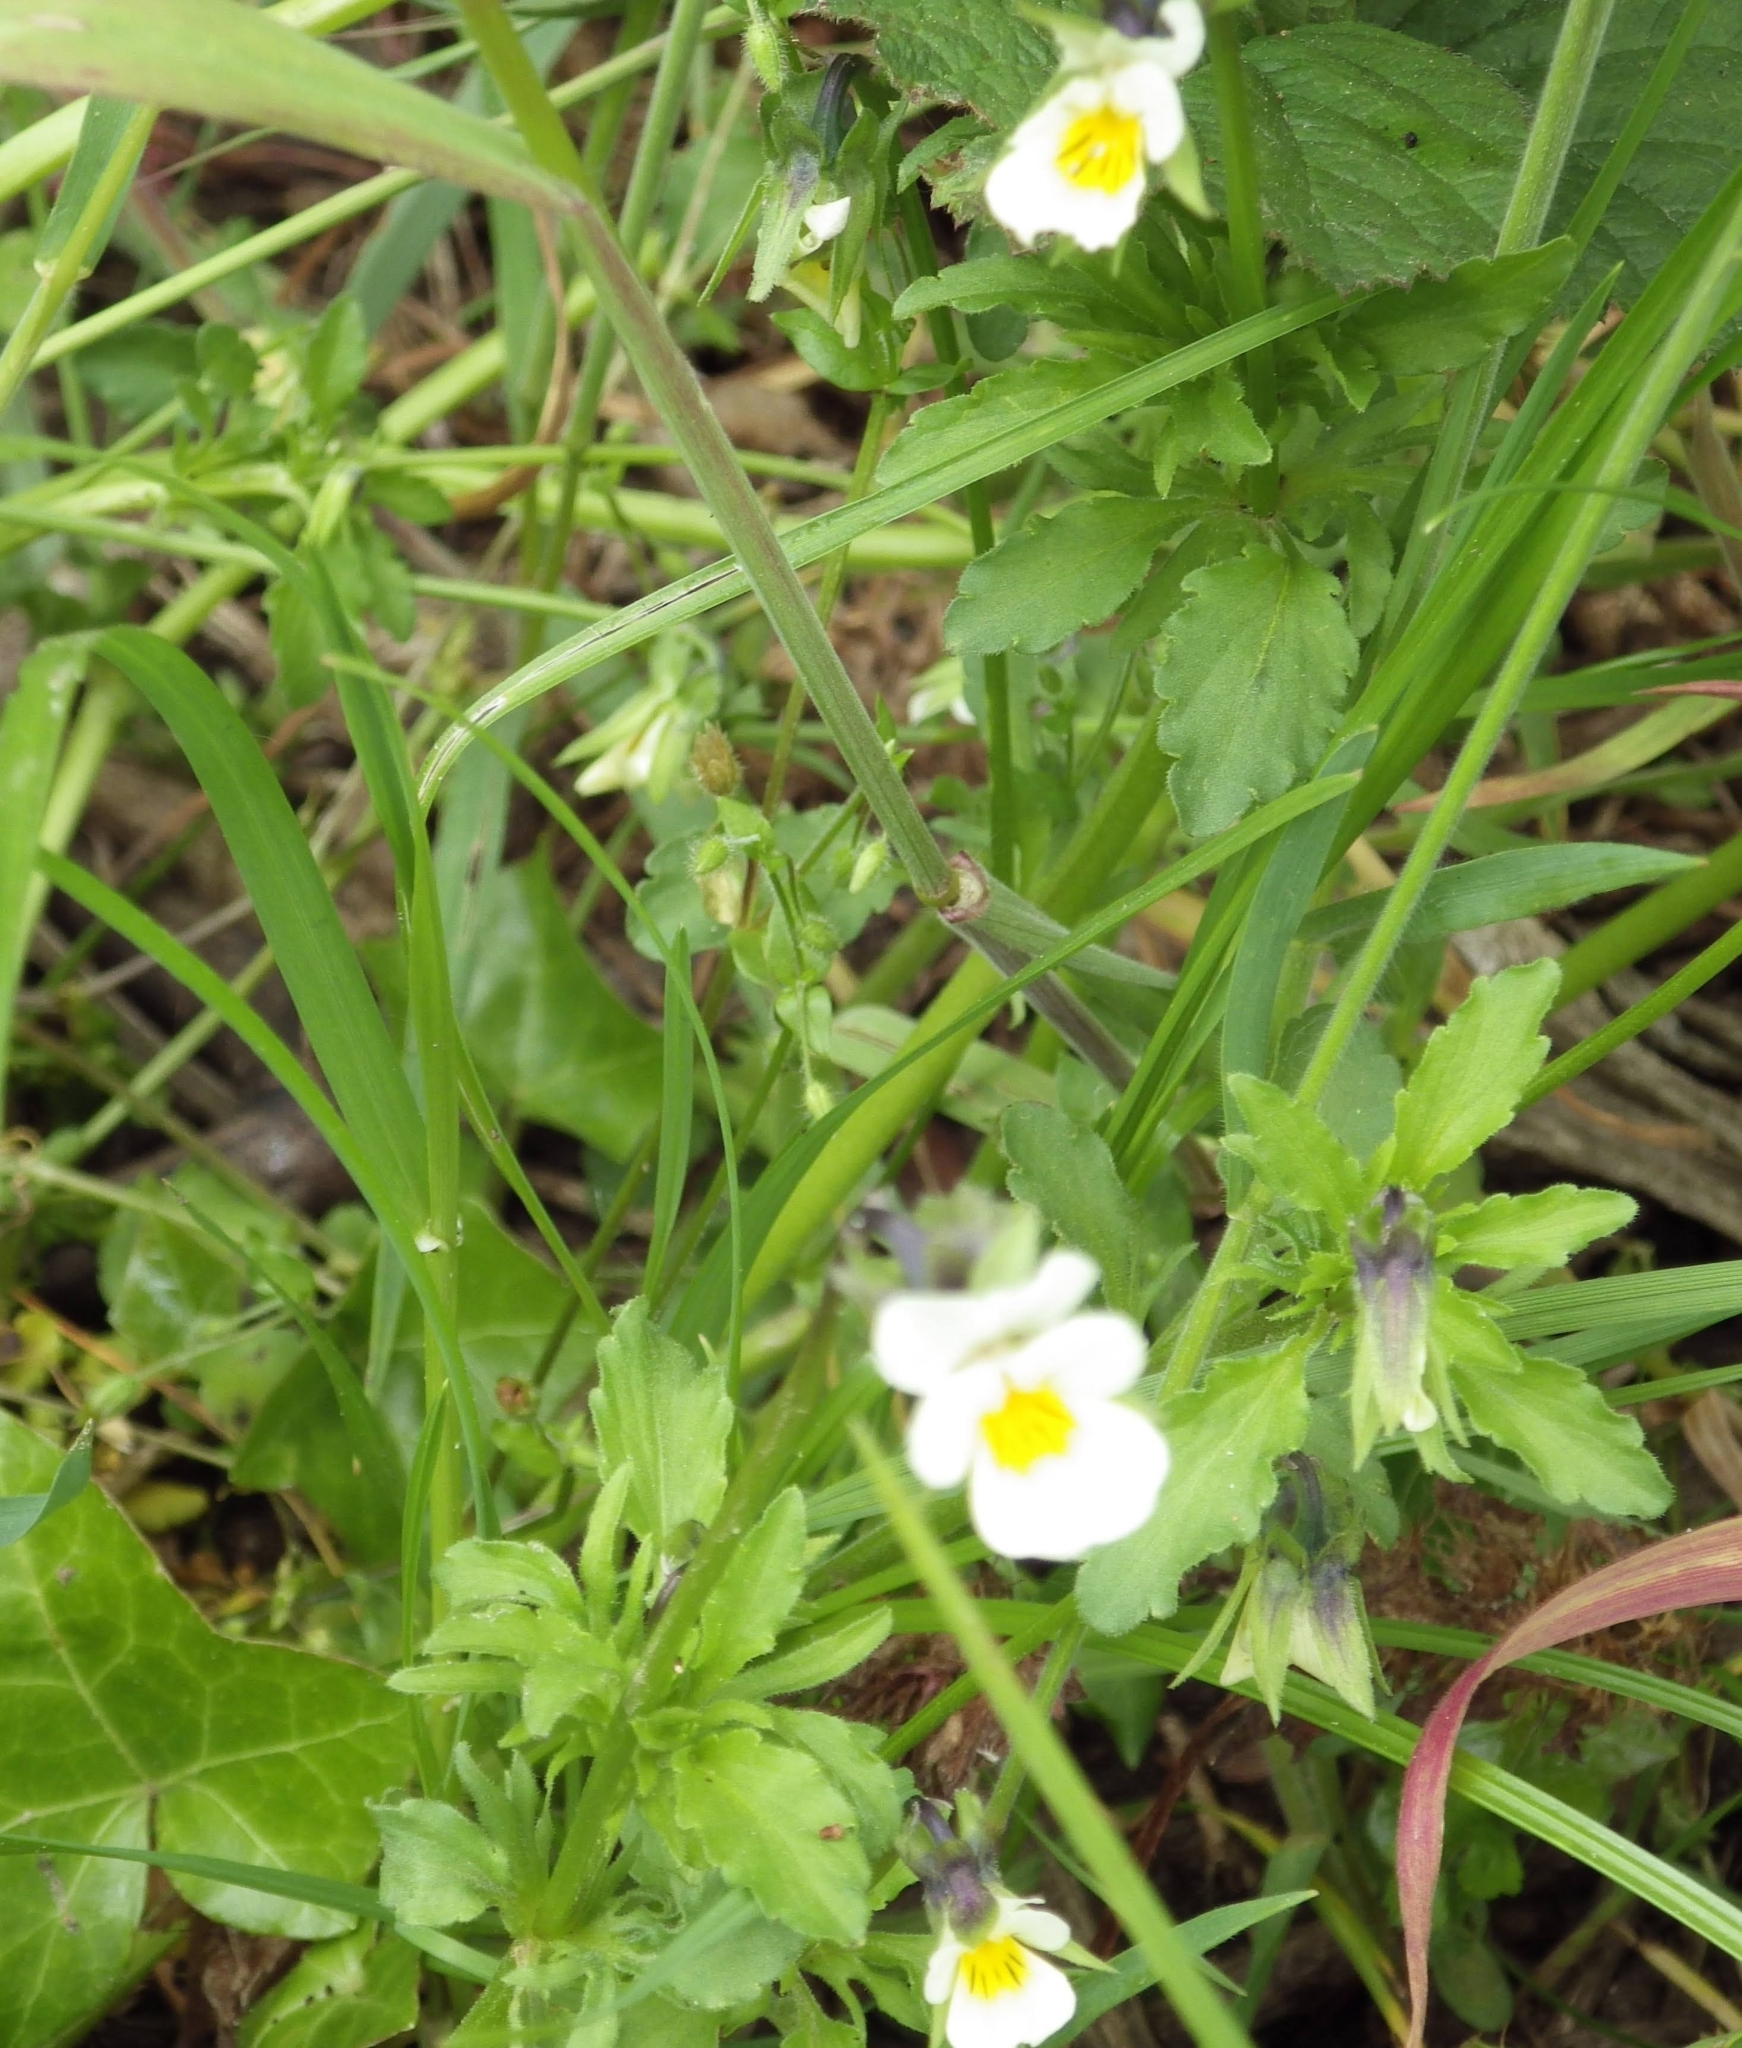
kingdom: Plantae
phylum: Tracheophyta
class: Magnoliopsida
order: Malpighiales
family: Violaceae
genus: Viola
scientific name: Viola arvensis
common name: Field pansy
